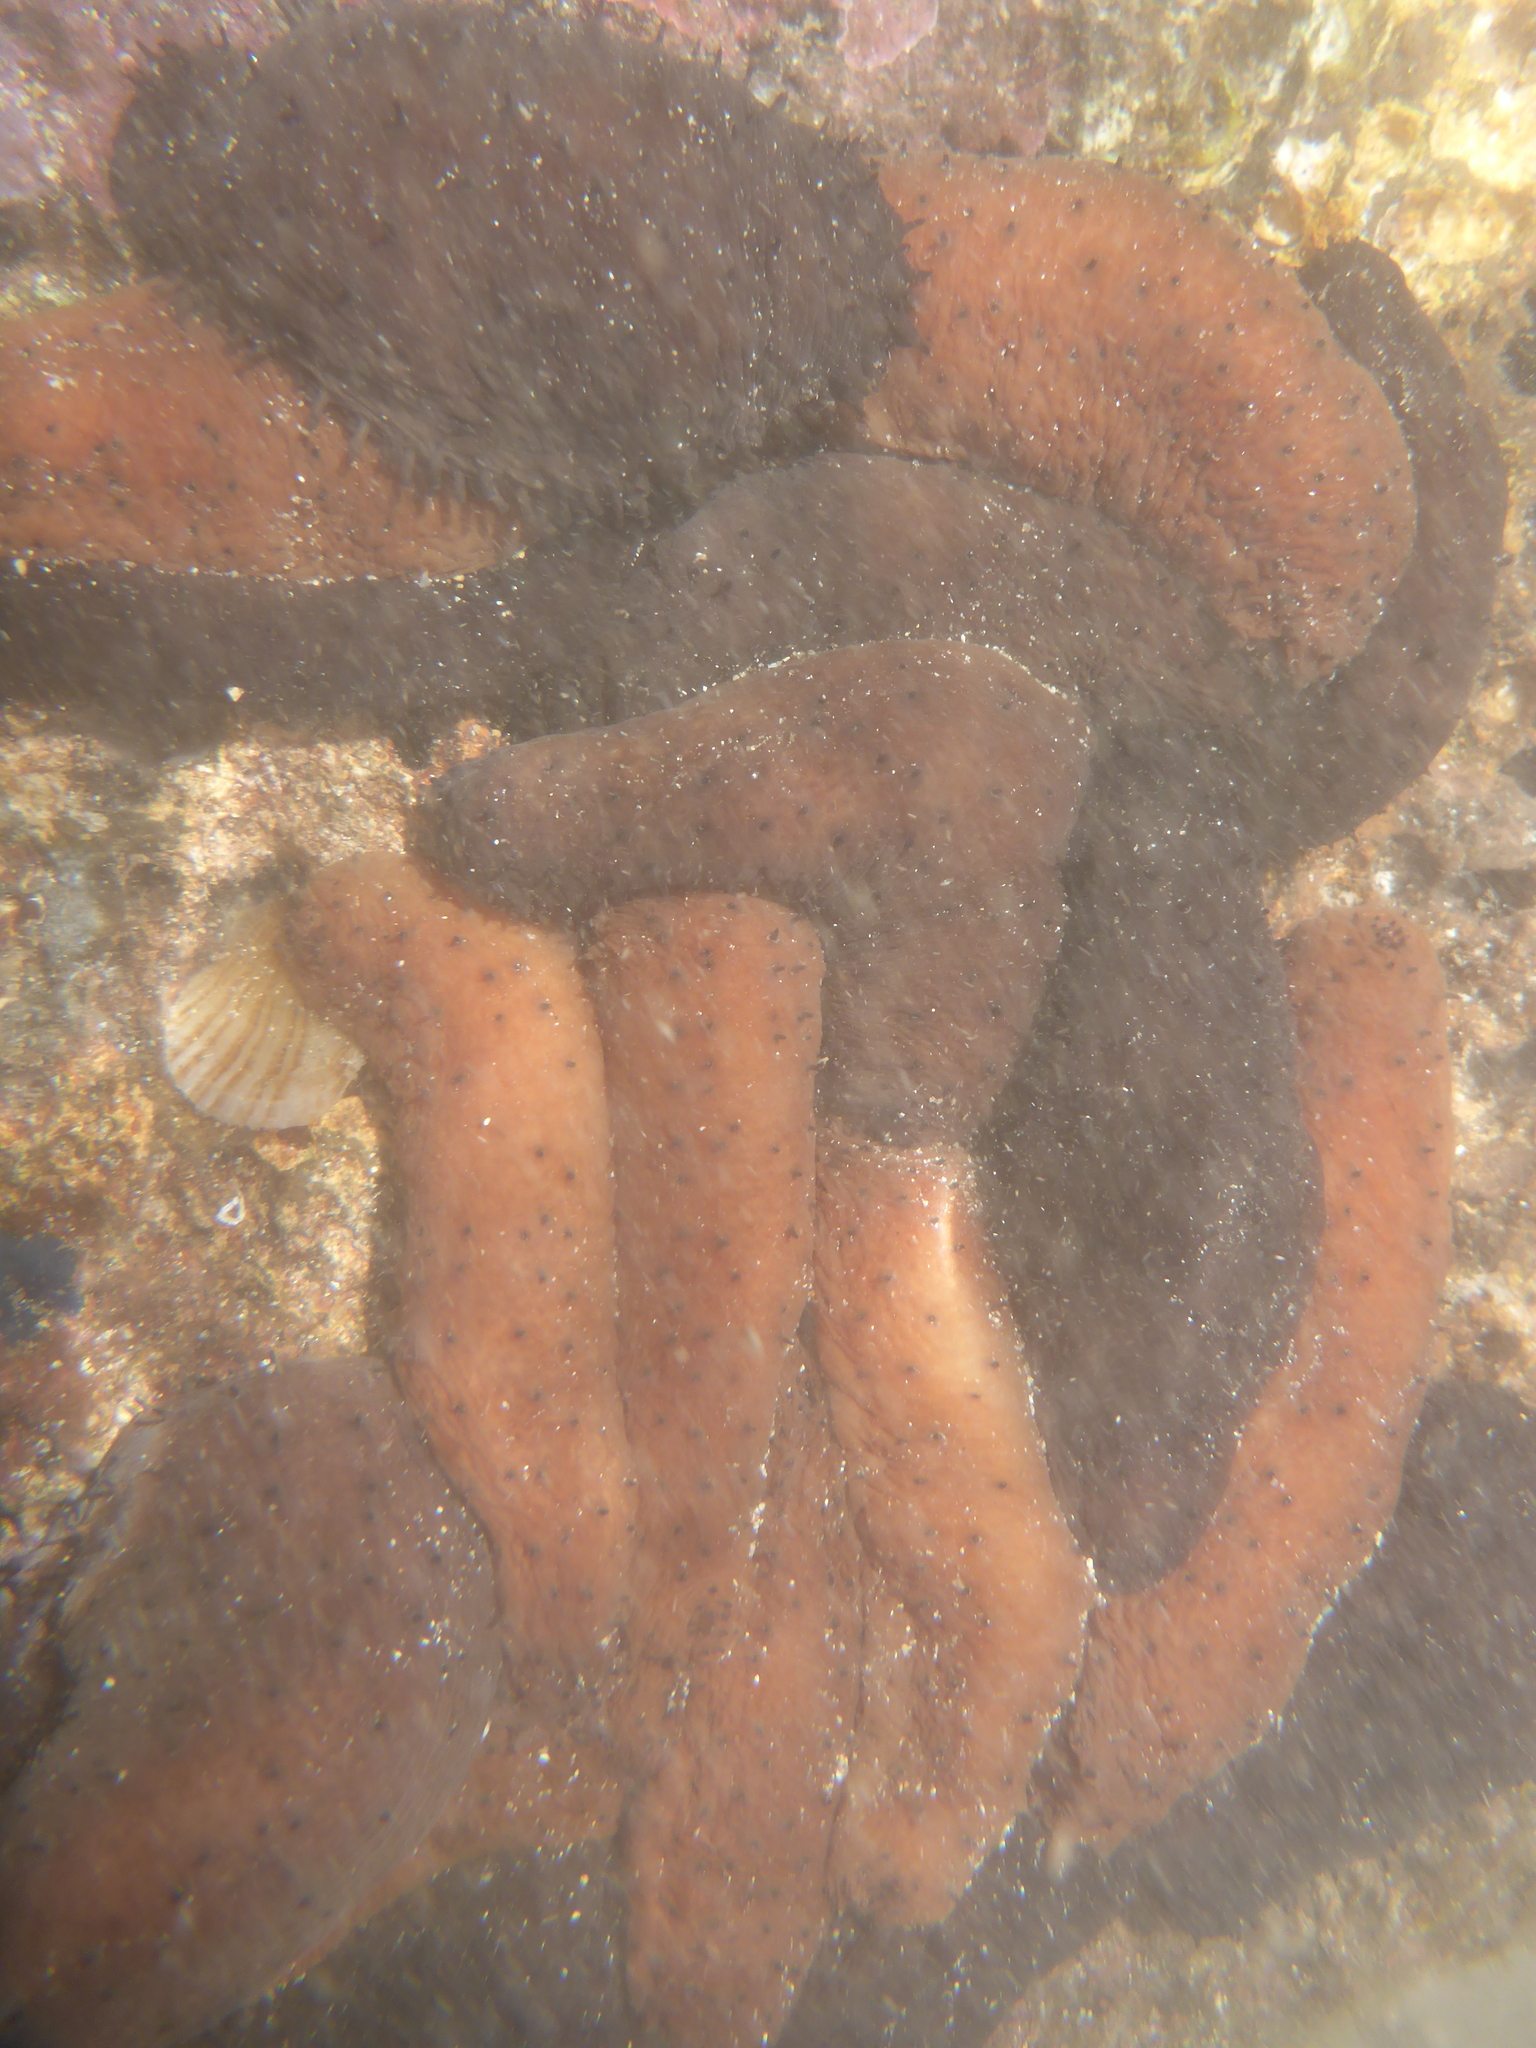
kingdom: Animalia
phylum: Echinodermata
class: Holothuroidea
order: Holothuriida
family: Holothuriidae
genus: Holothuria
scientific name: Holothuria difficilis
